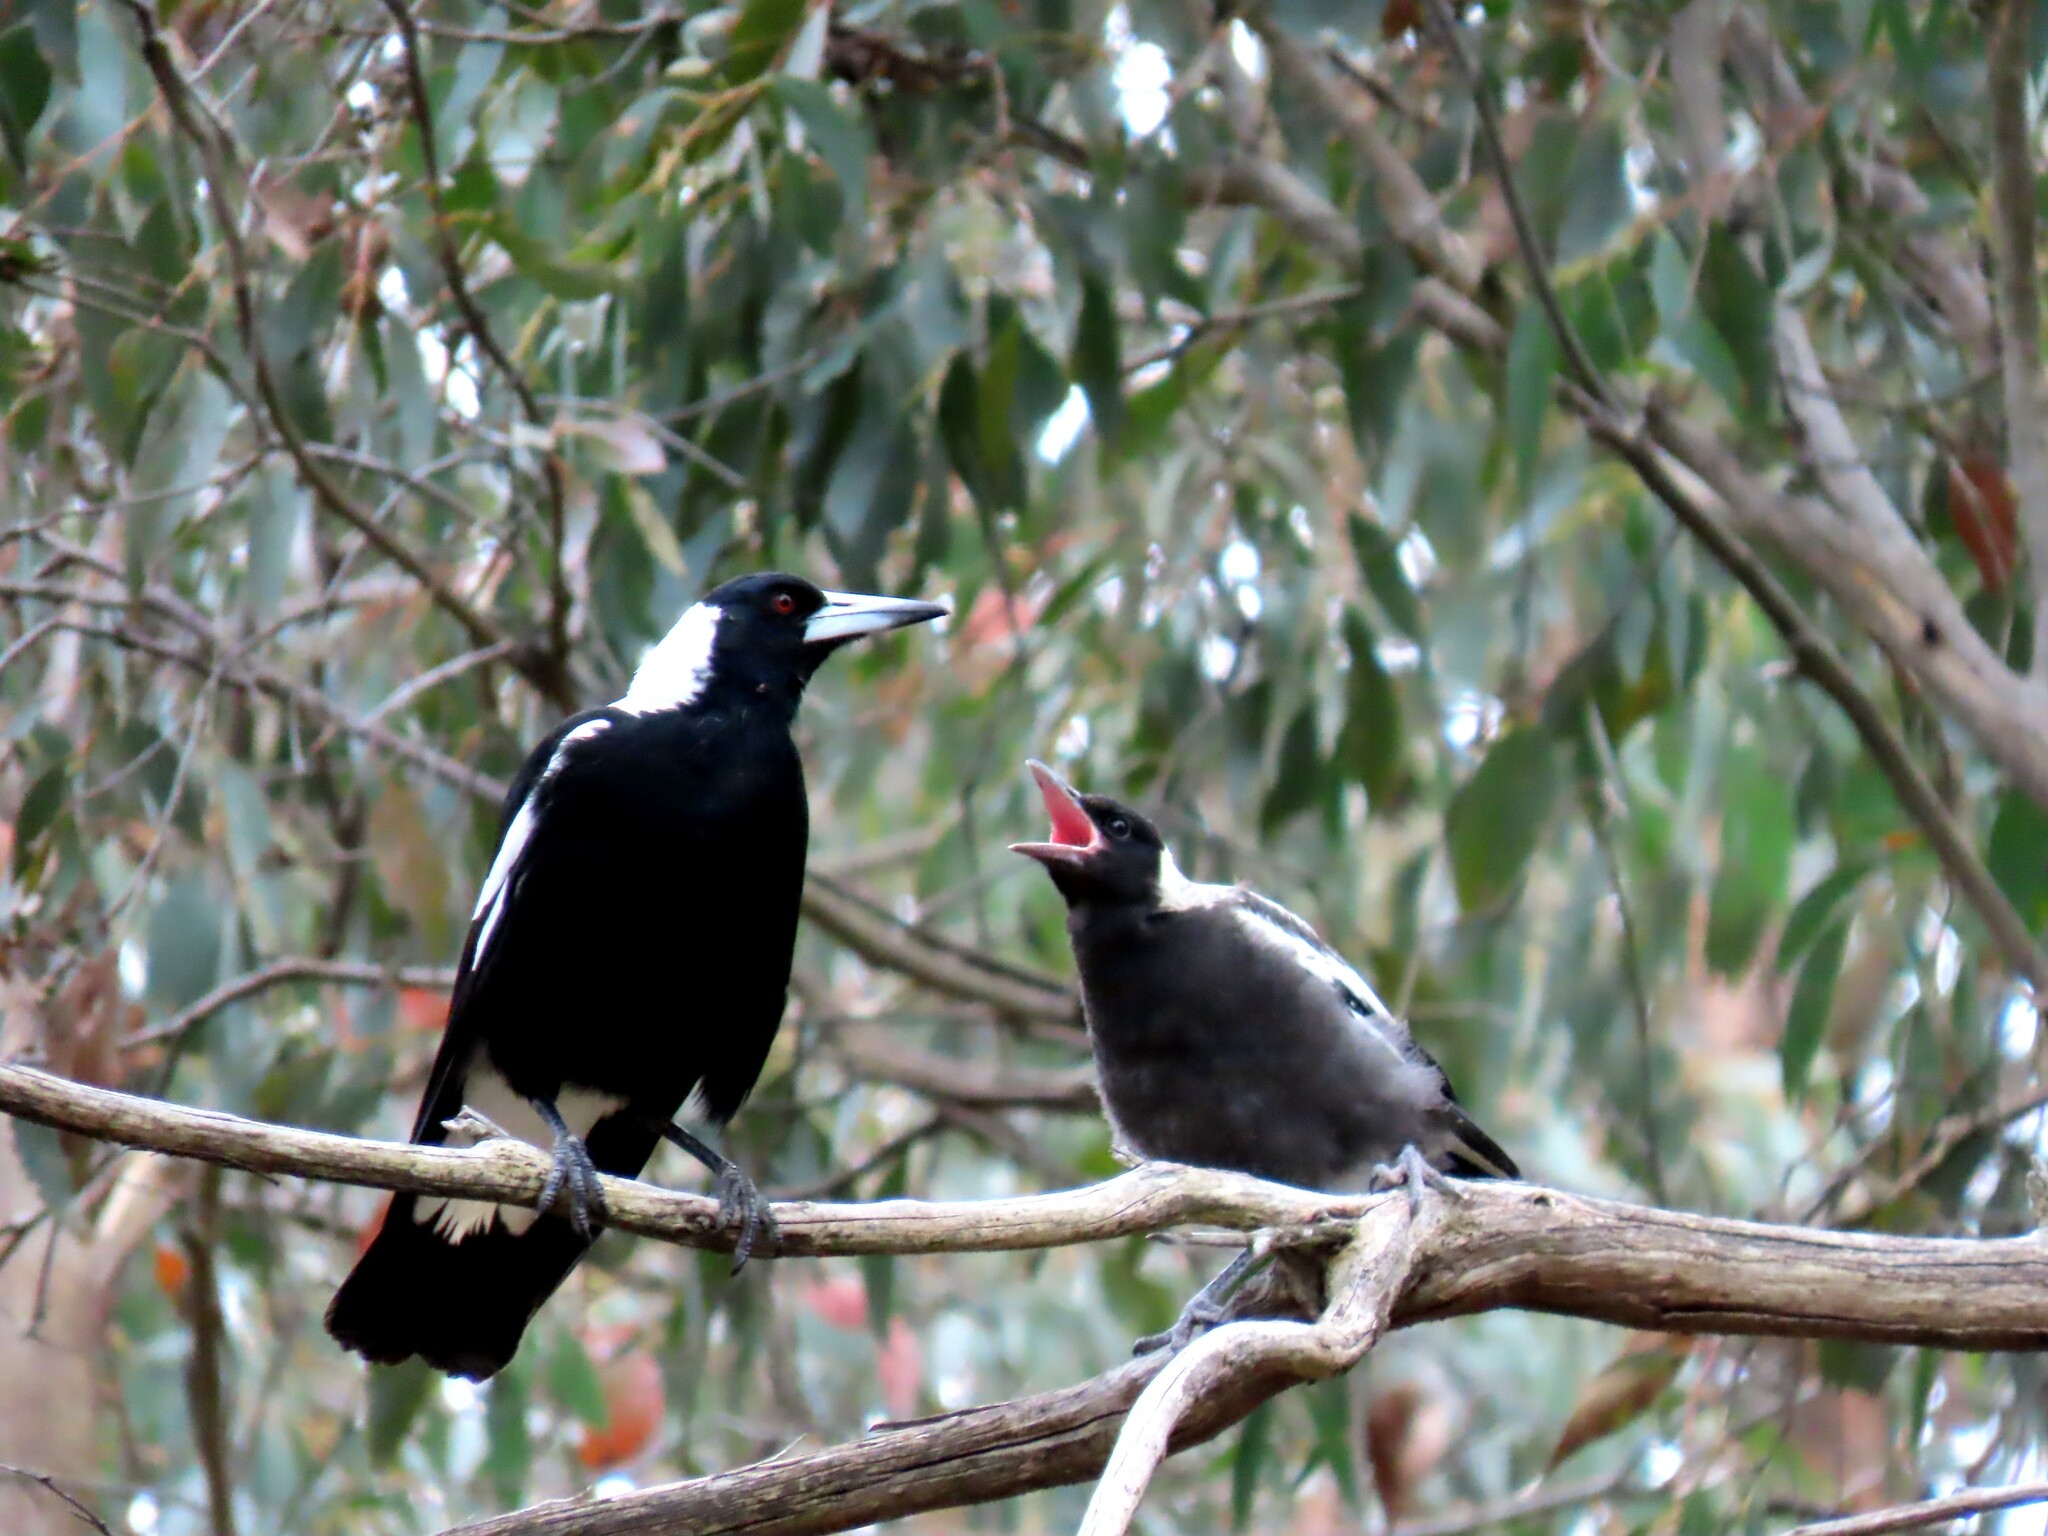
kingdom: Animalia
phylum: Chordata
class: Aves
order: Passeriformes
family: Cracticidae
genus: Gymnorhina
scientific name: Gymnorhina tibicen
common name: Australian magpie
